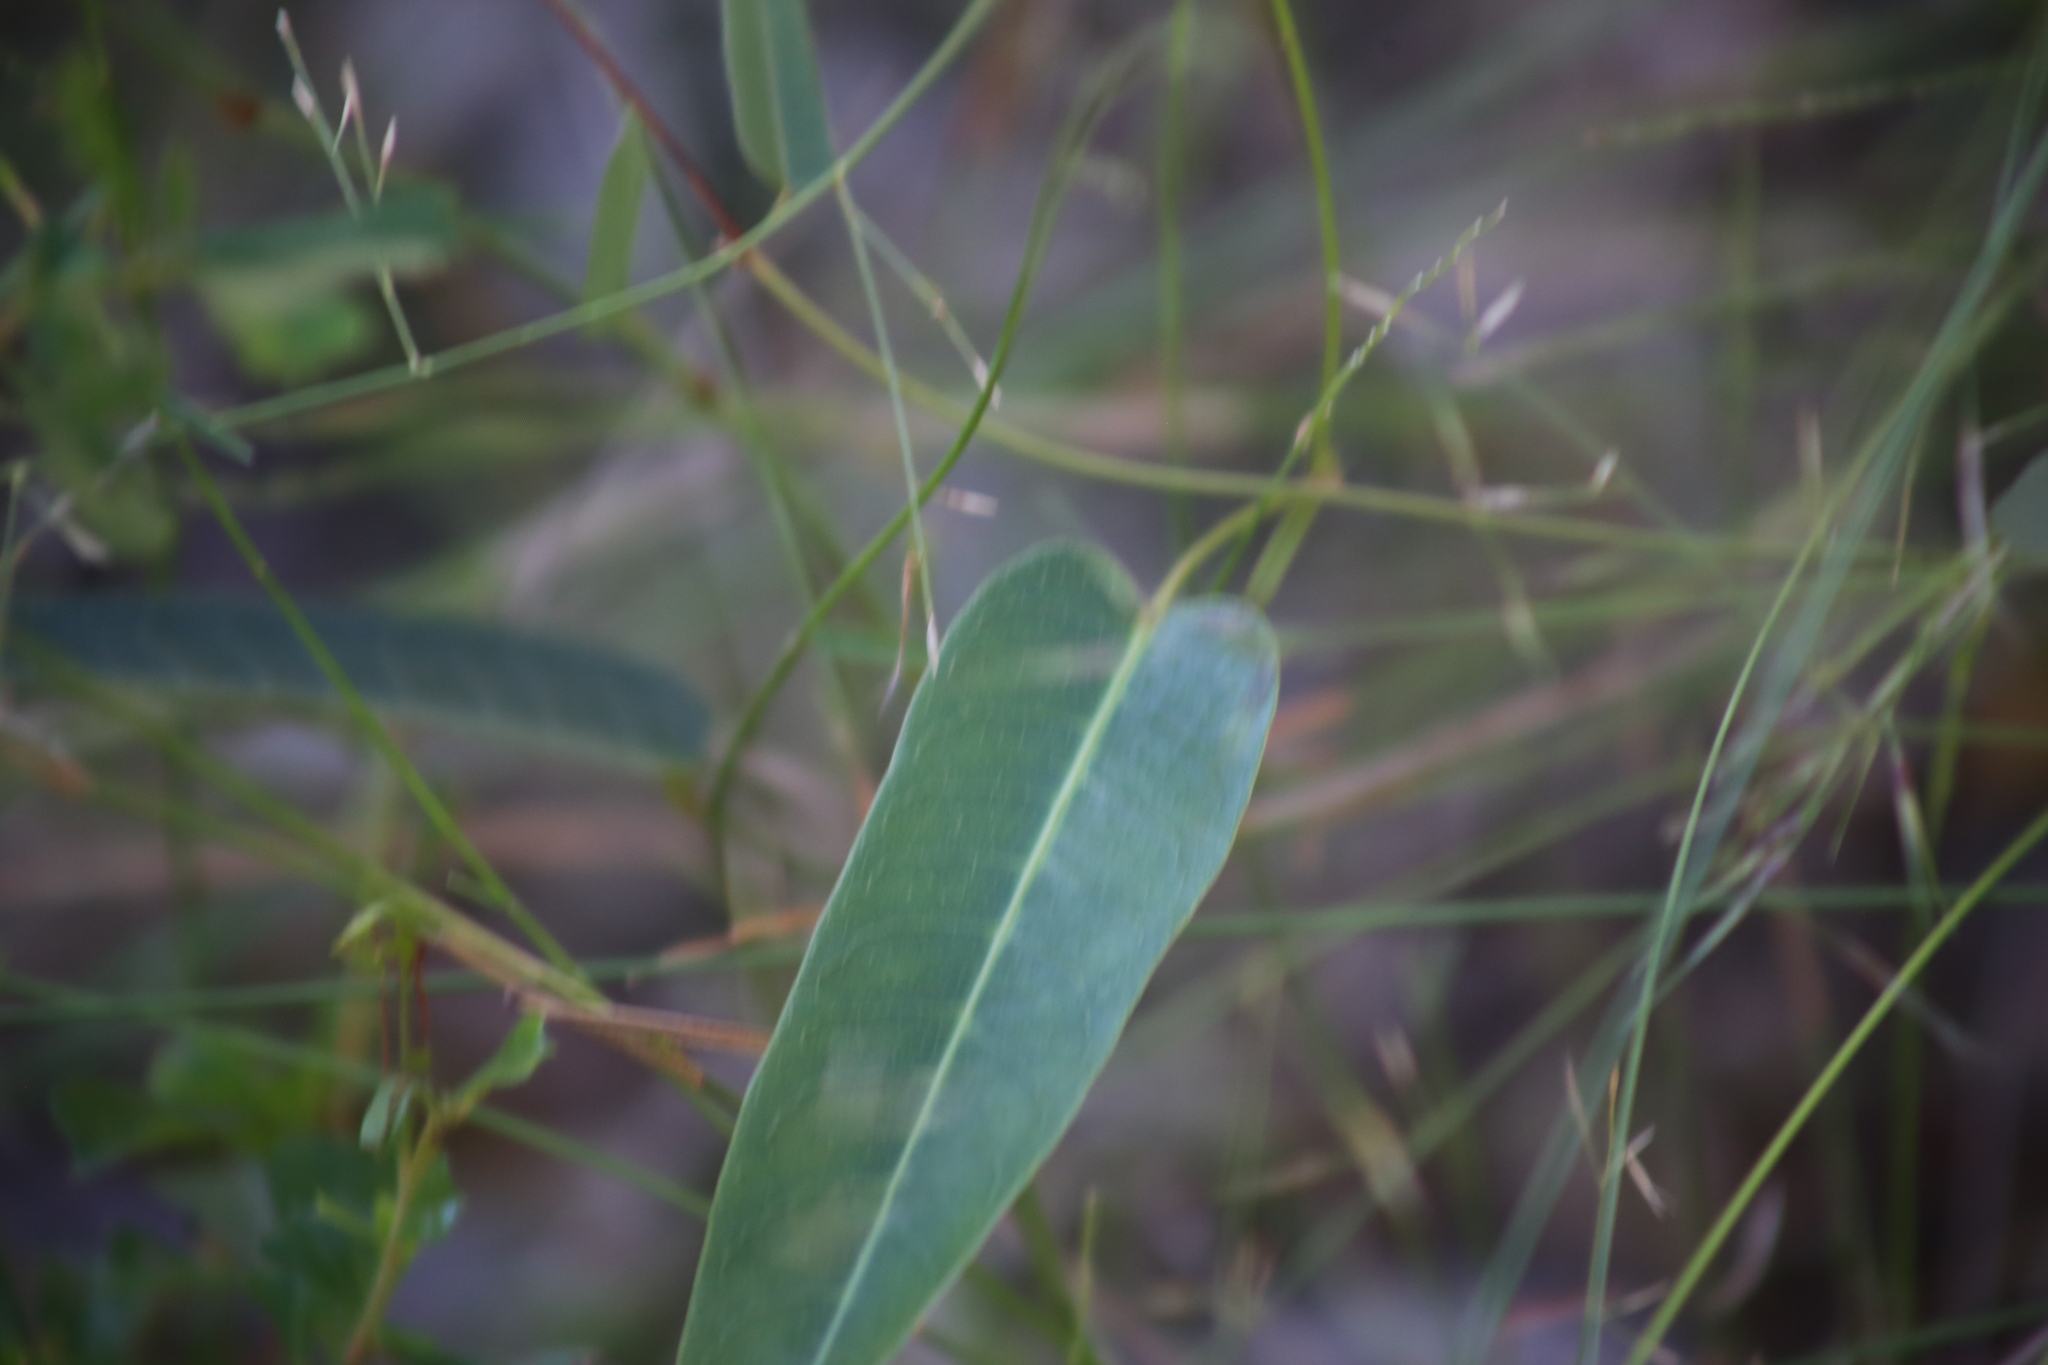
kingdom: Plantae
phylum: Tracheophyta
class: Magnoliopsida
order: Fabales
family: Fabaceae
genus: Hardenbergia
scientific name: Hardenbergia violacea
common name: Coral-pea
